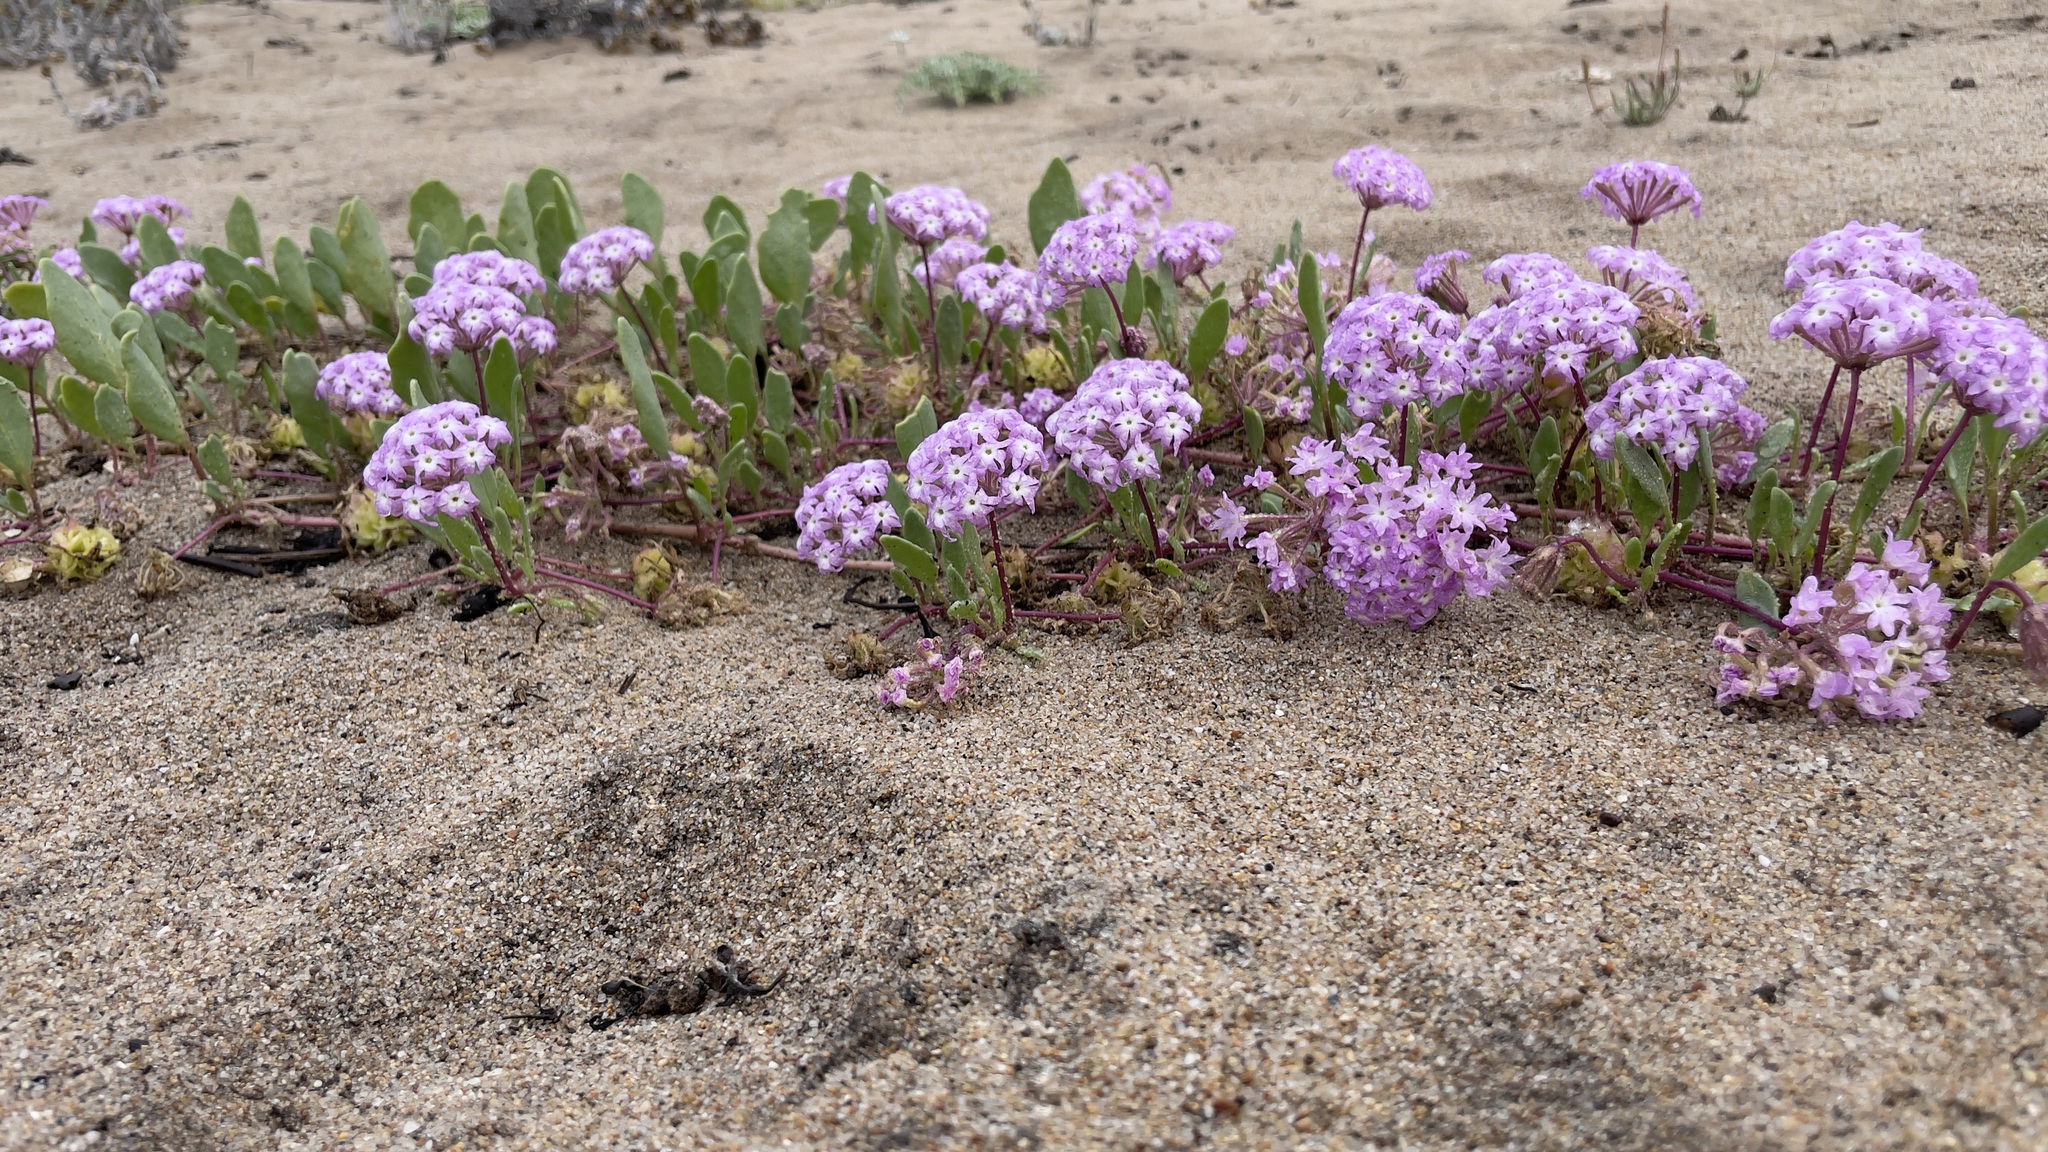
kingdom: Plantae
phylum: Tracheophyta
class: Magnoliopsida
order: Caryophyllales
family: Nyctaginaceae
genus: Abronia
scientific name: Abronia umbellata
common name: Sand-verbena
